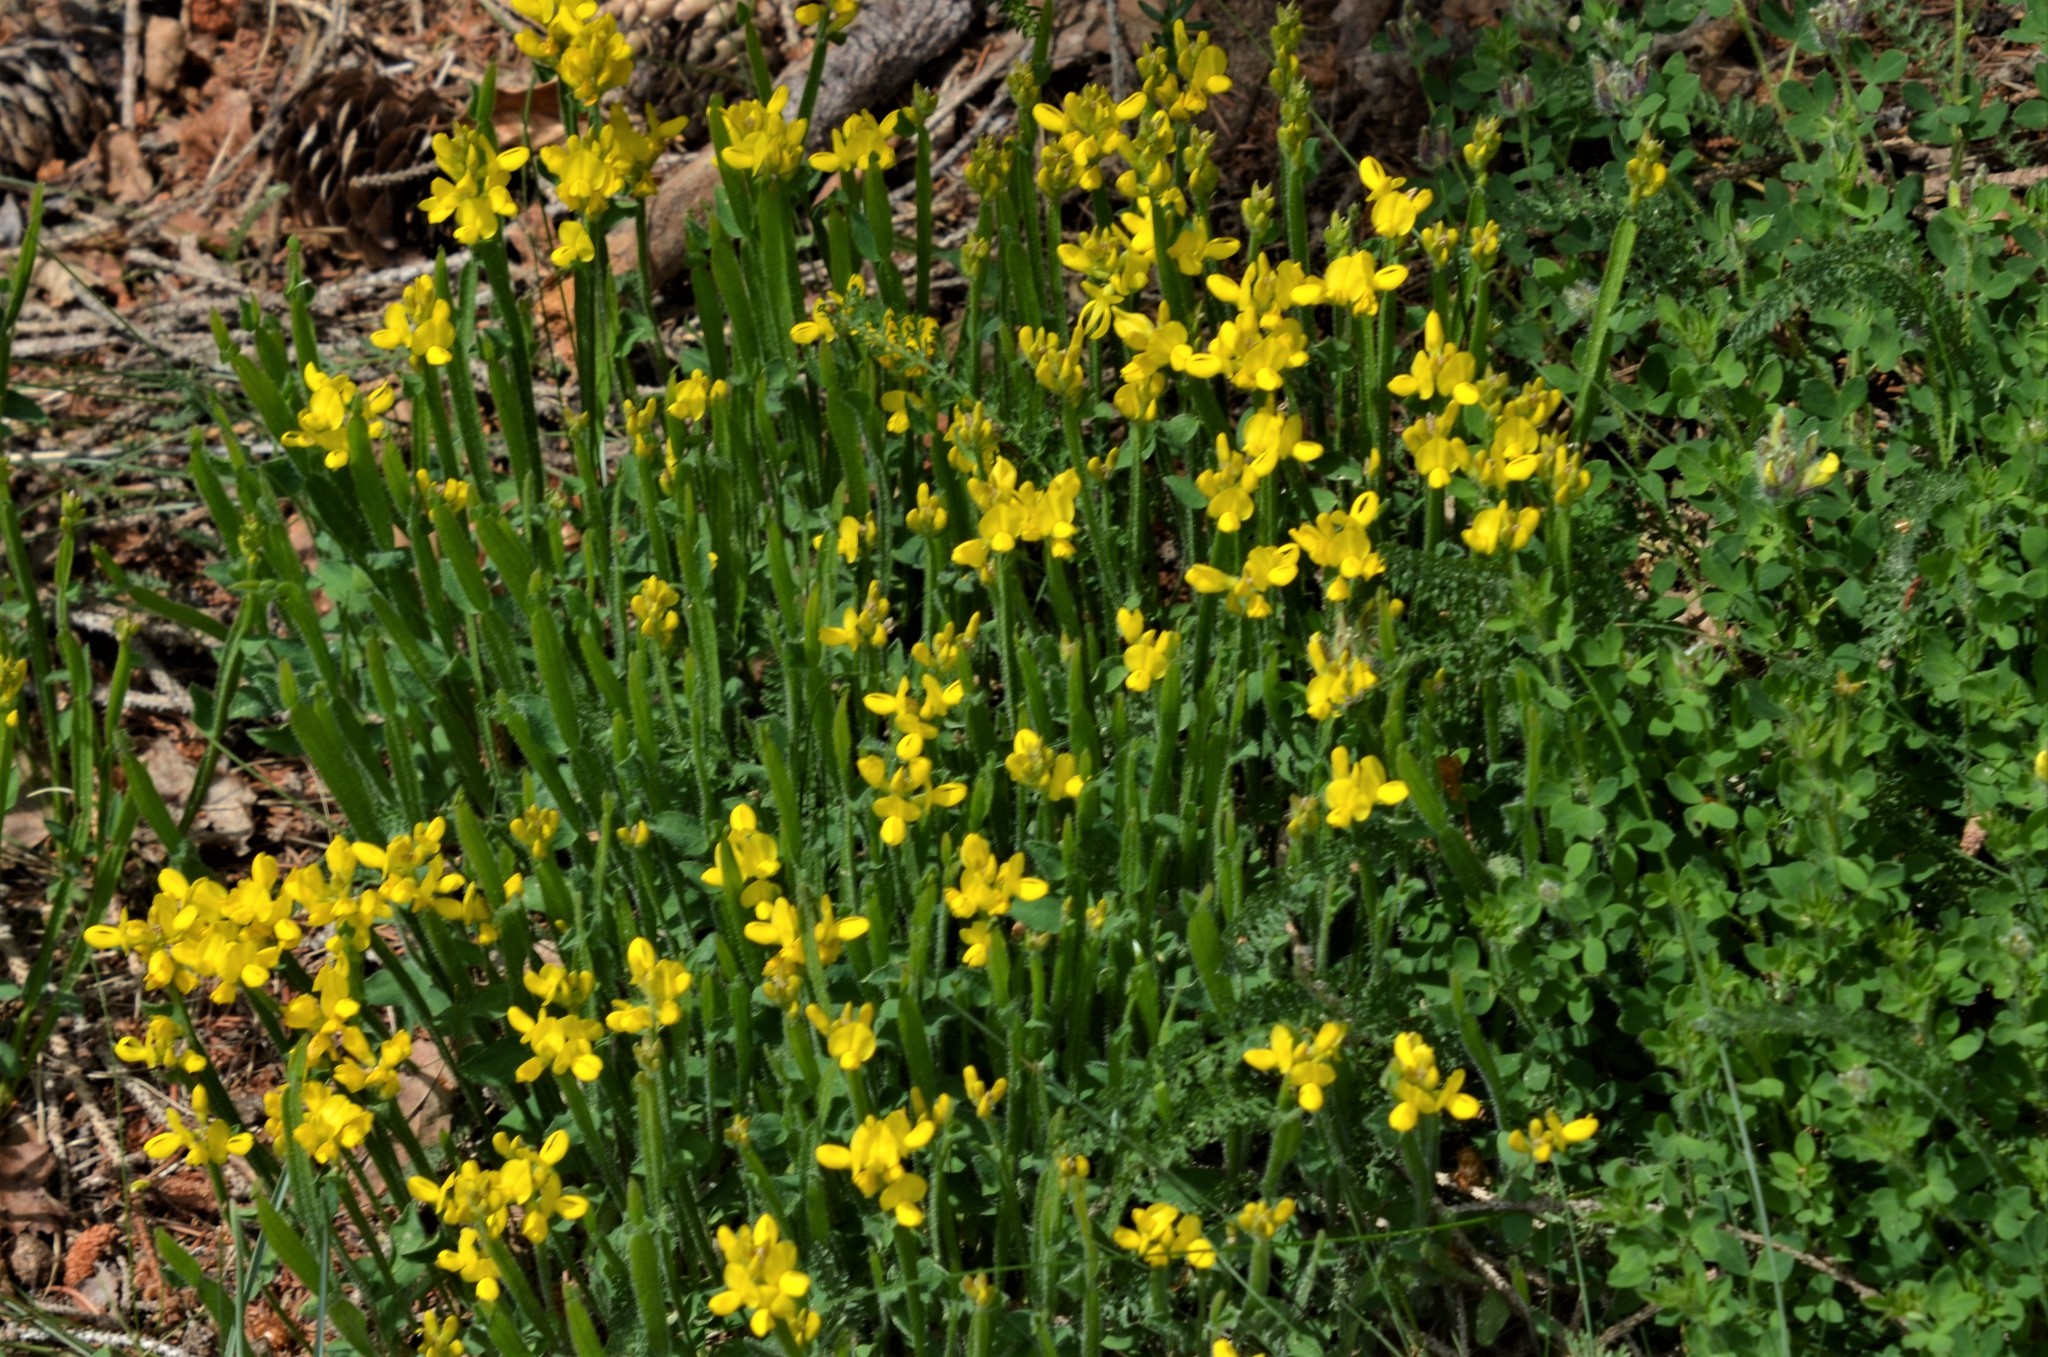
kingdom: Plantae
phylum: Tracheophyta
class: Magnoliopsida
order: Fabales
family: Fabaceae
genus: Genista
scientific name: Genista sagittalis
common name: Winged greenweed
